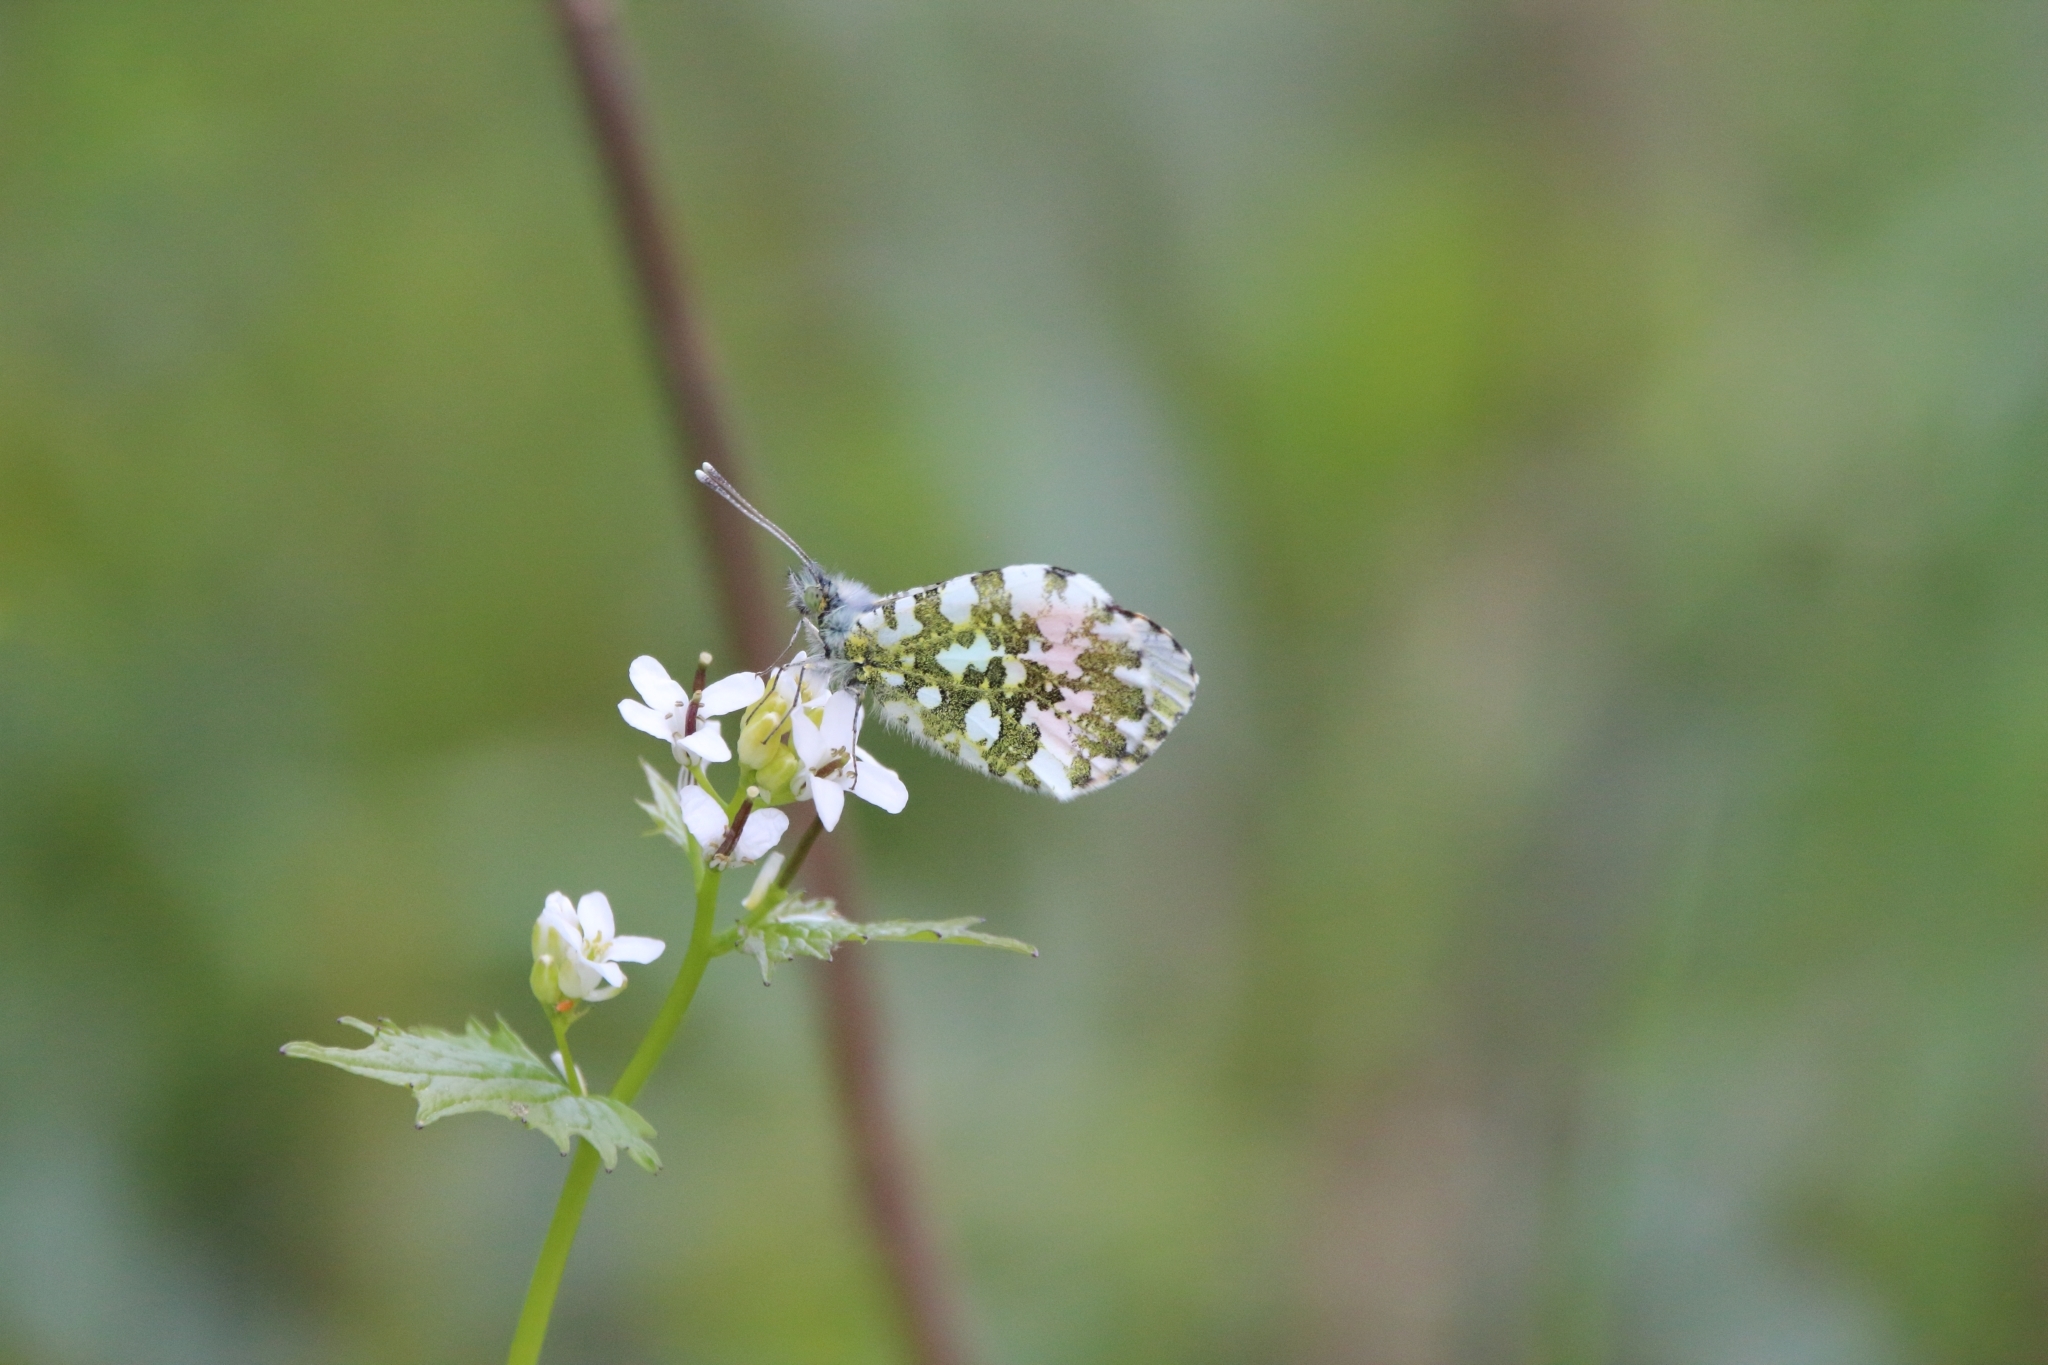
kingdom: Animalia
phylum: Arthropoda
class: Insecta
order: Lepidoptera
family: Pieridae
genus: Anthocharis
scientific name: Anthocharis cardamines
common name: Orange-tip
